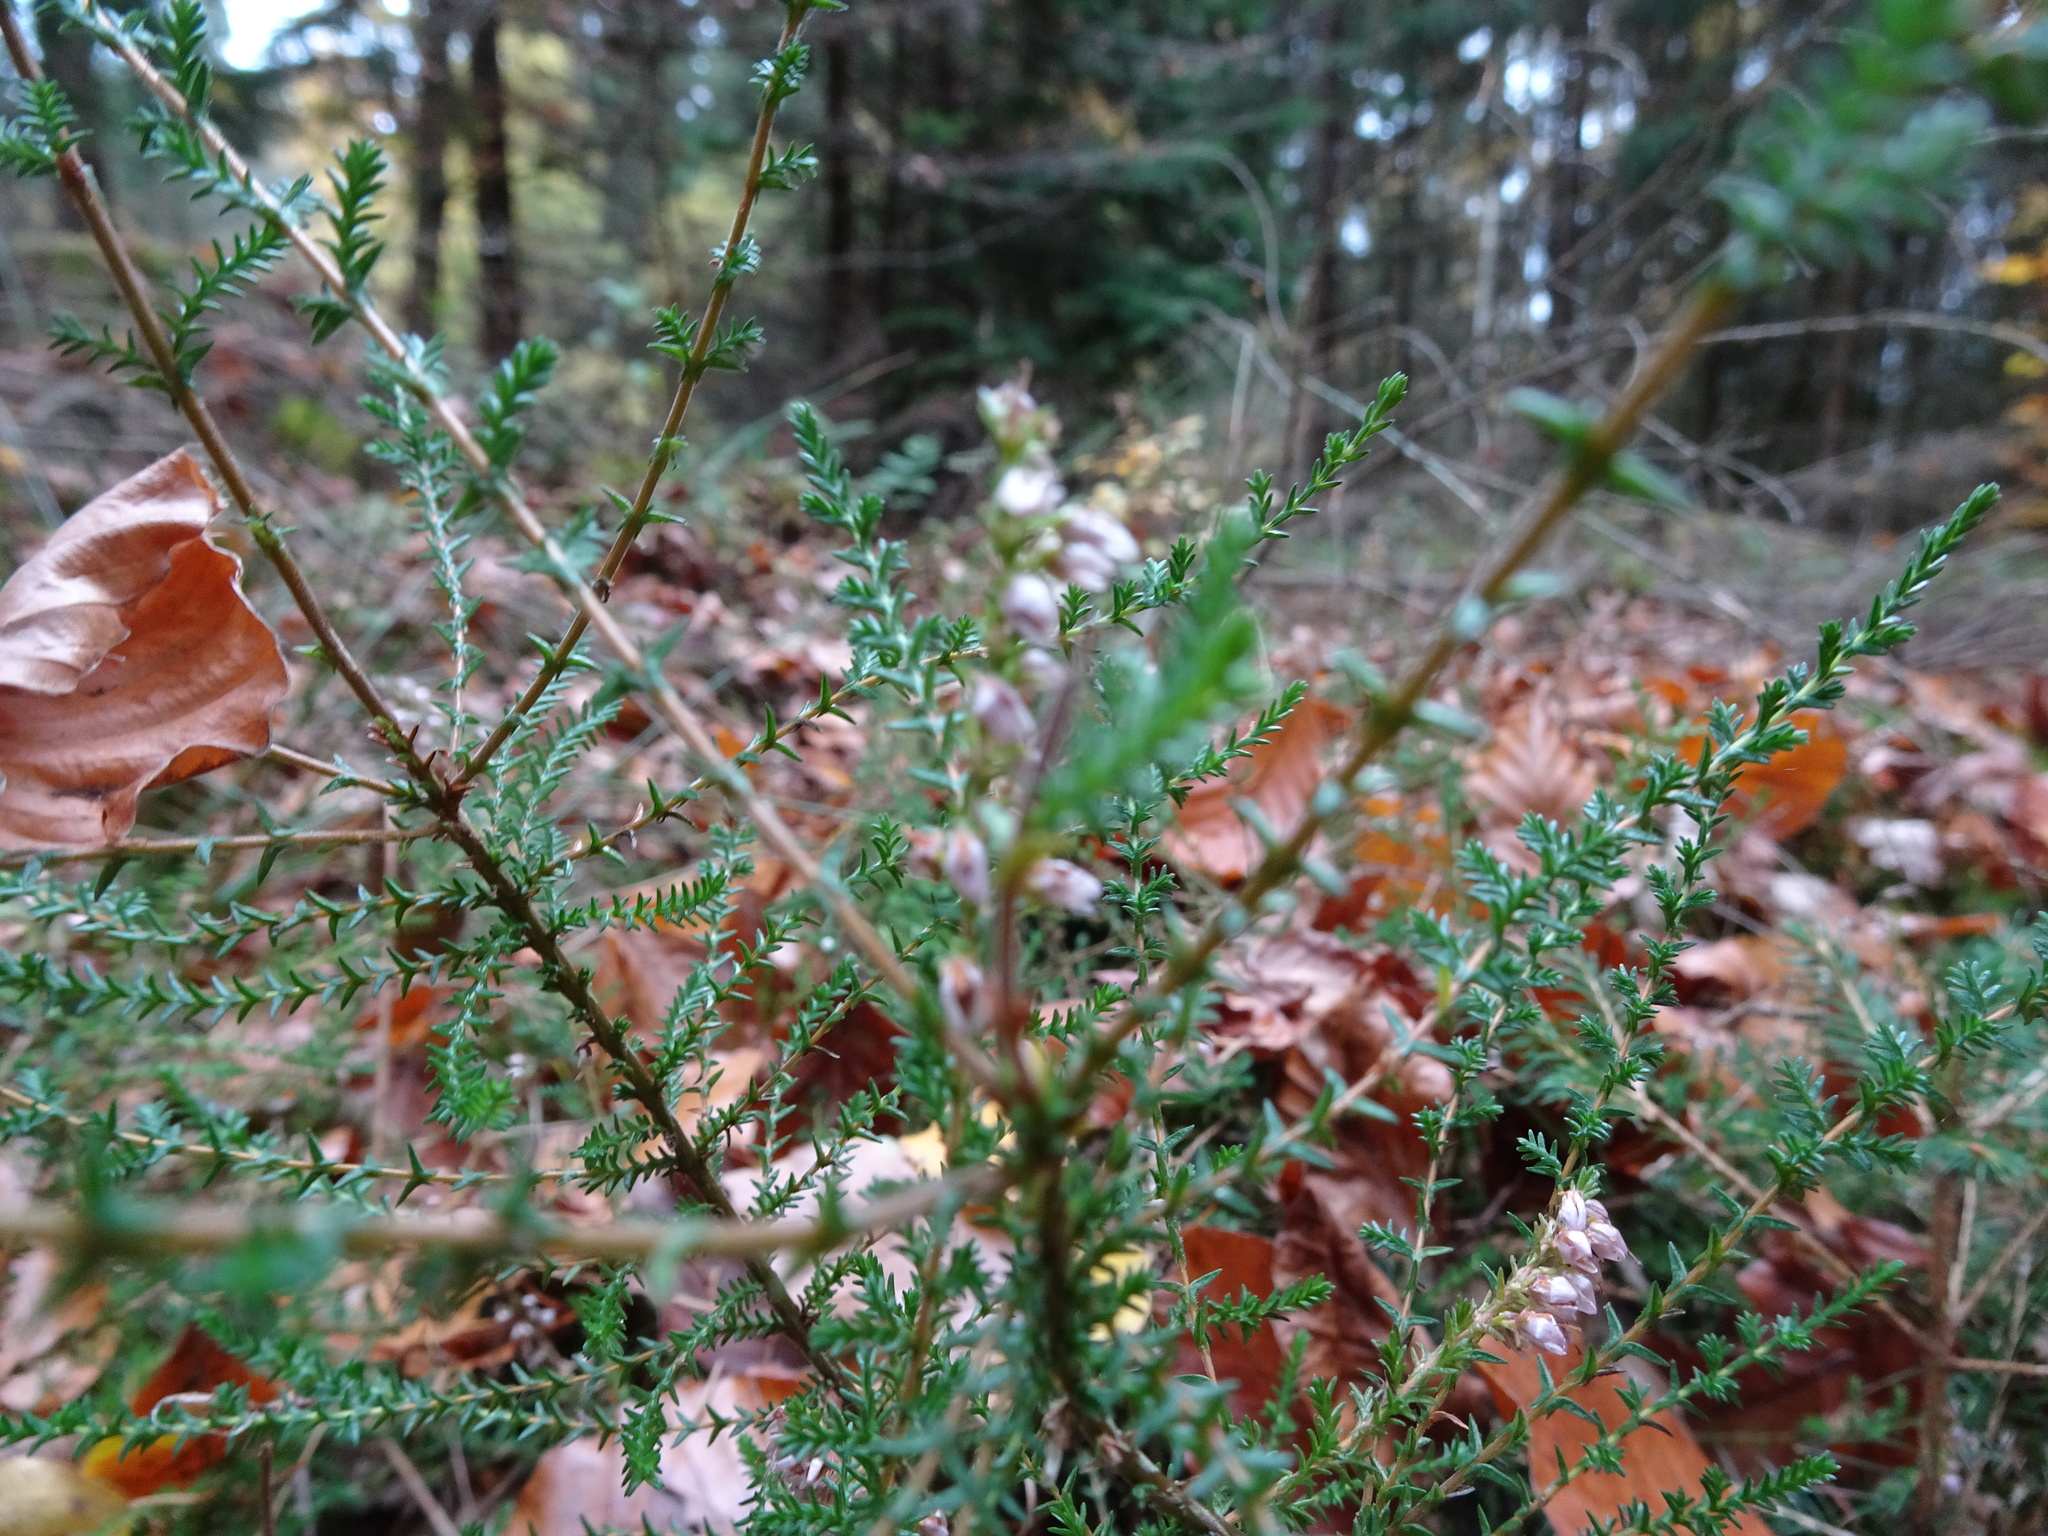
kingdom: Plantae
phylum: Tracheophyta
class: Magnoliopsida
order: Ericales
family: Ericaceae
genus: Calluna
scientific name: Calluna vulgaris
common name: Heather
